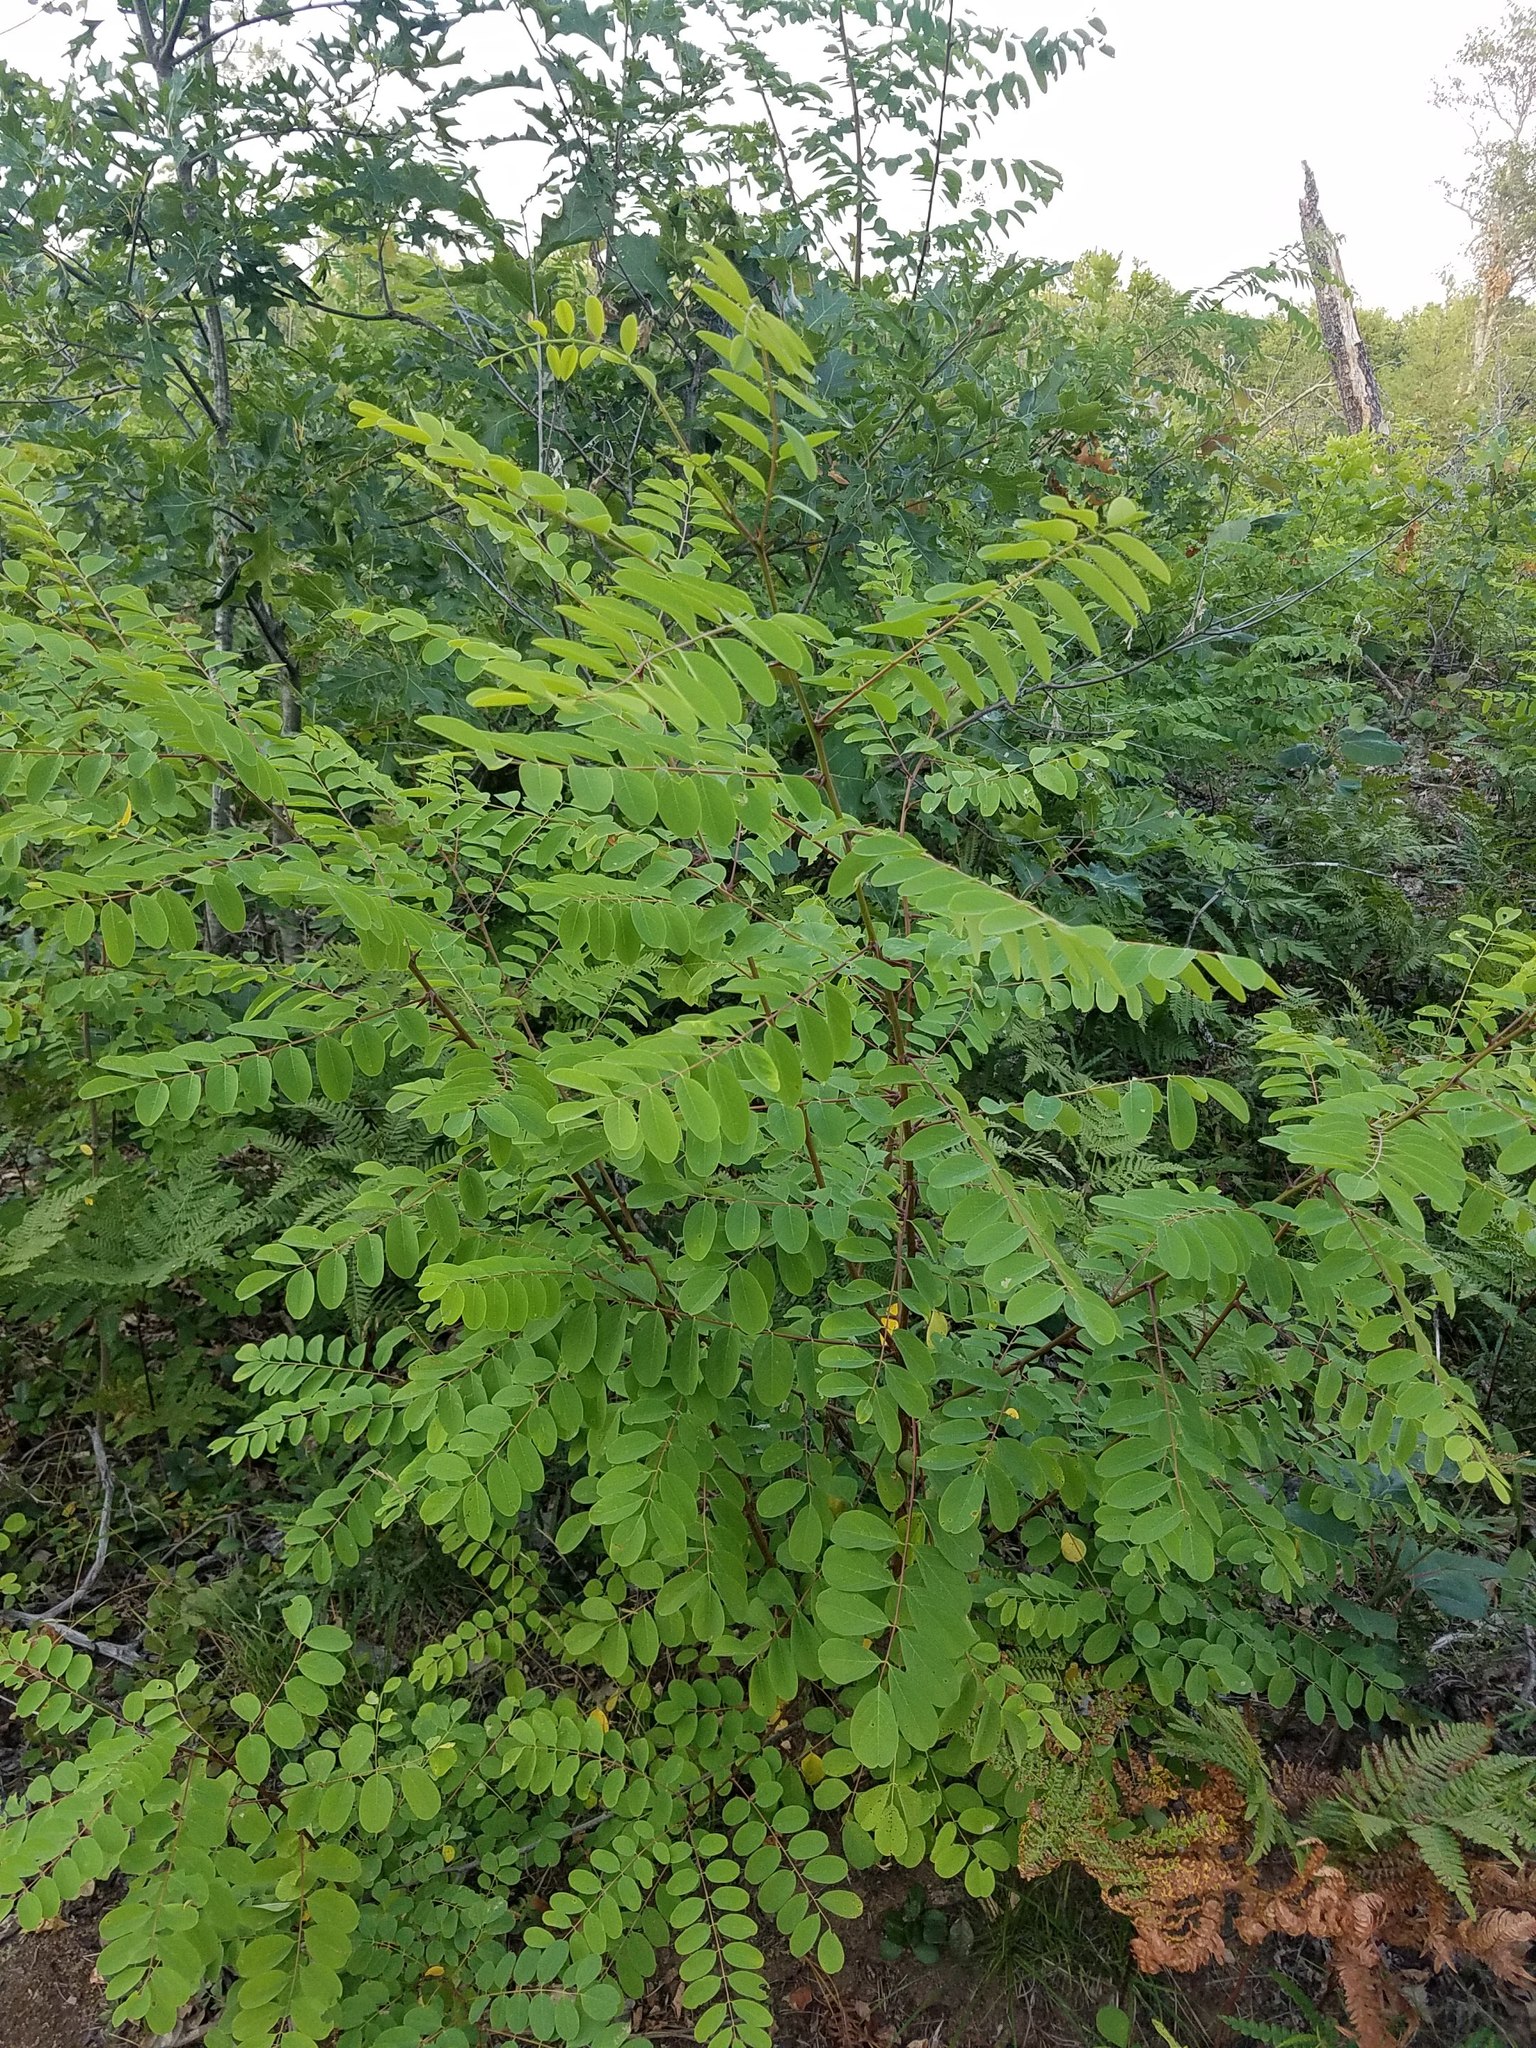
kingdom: Plantae
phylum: Tracheophyta
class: Magnoliopsida
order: Fabales
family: Fabaceae
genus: Robinia
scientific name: Robinia pseudoacacia
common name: Black locust
